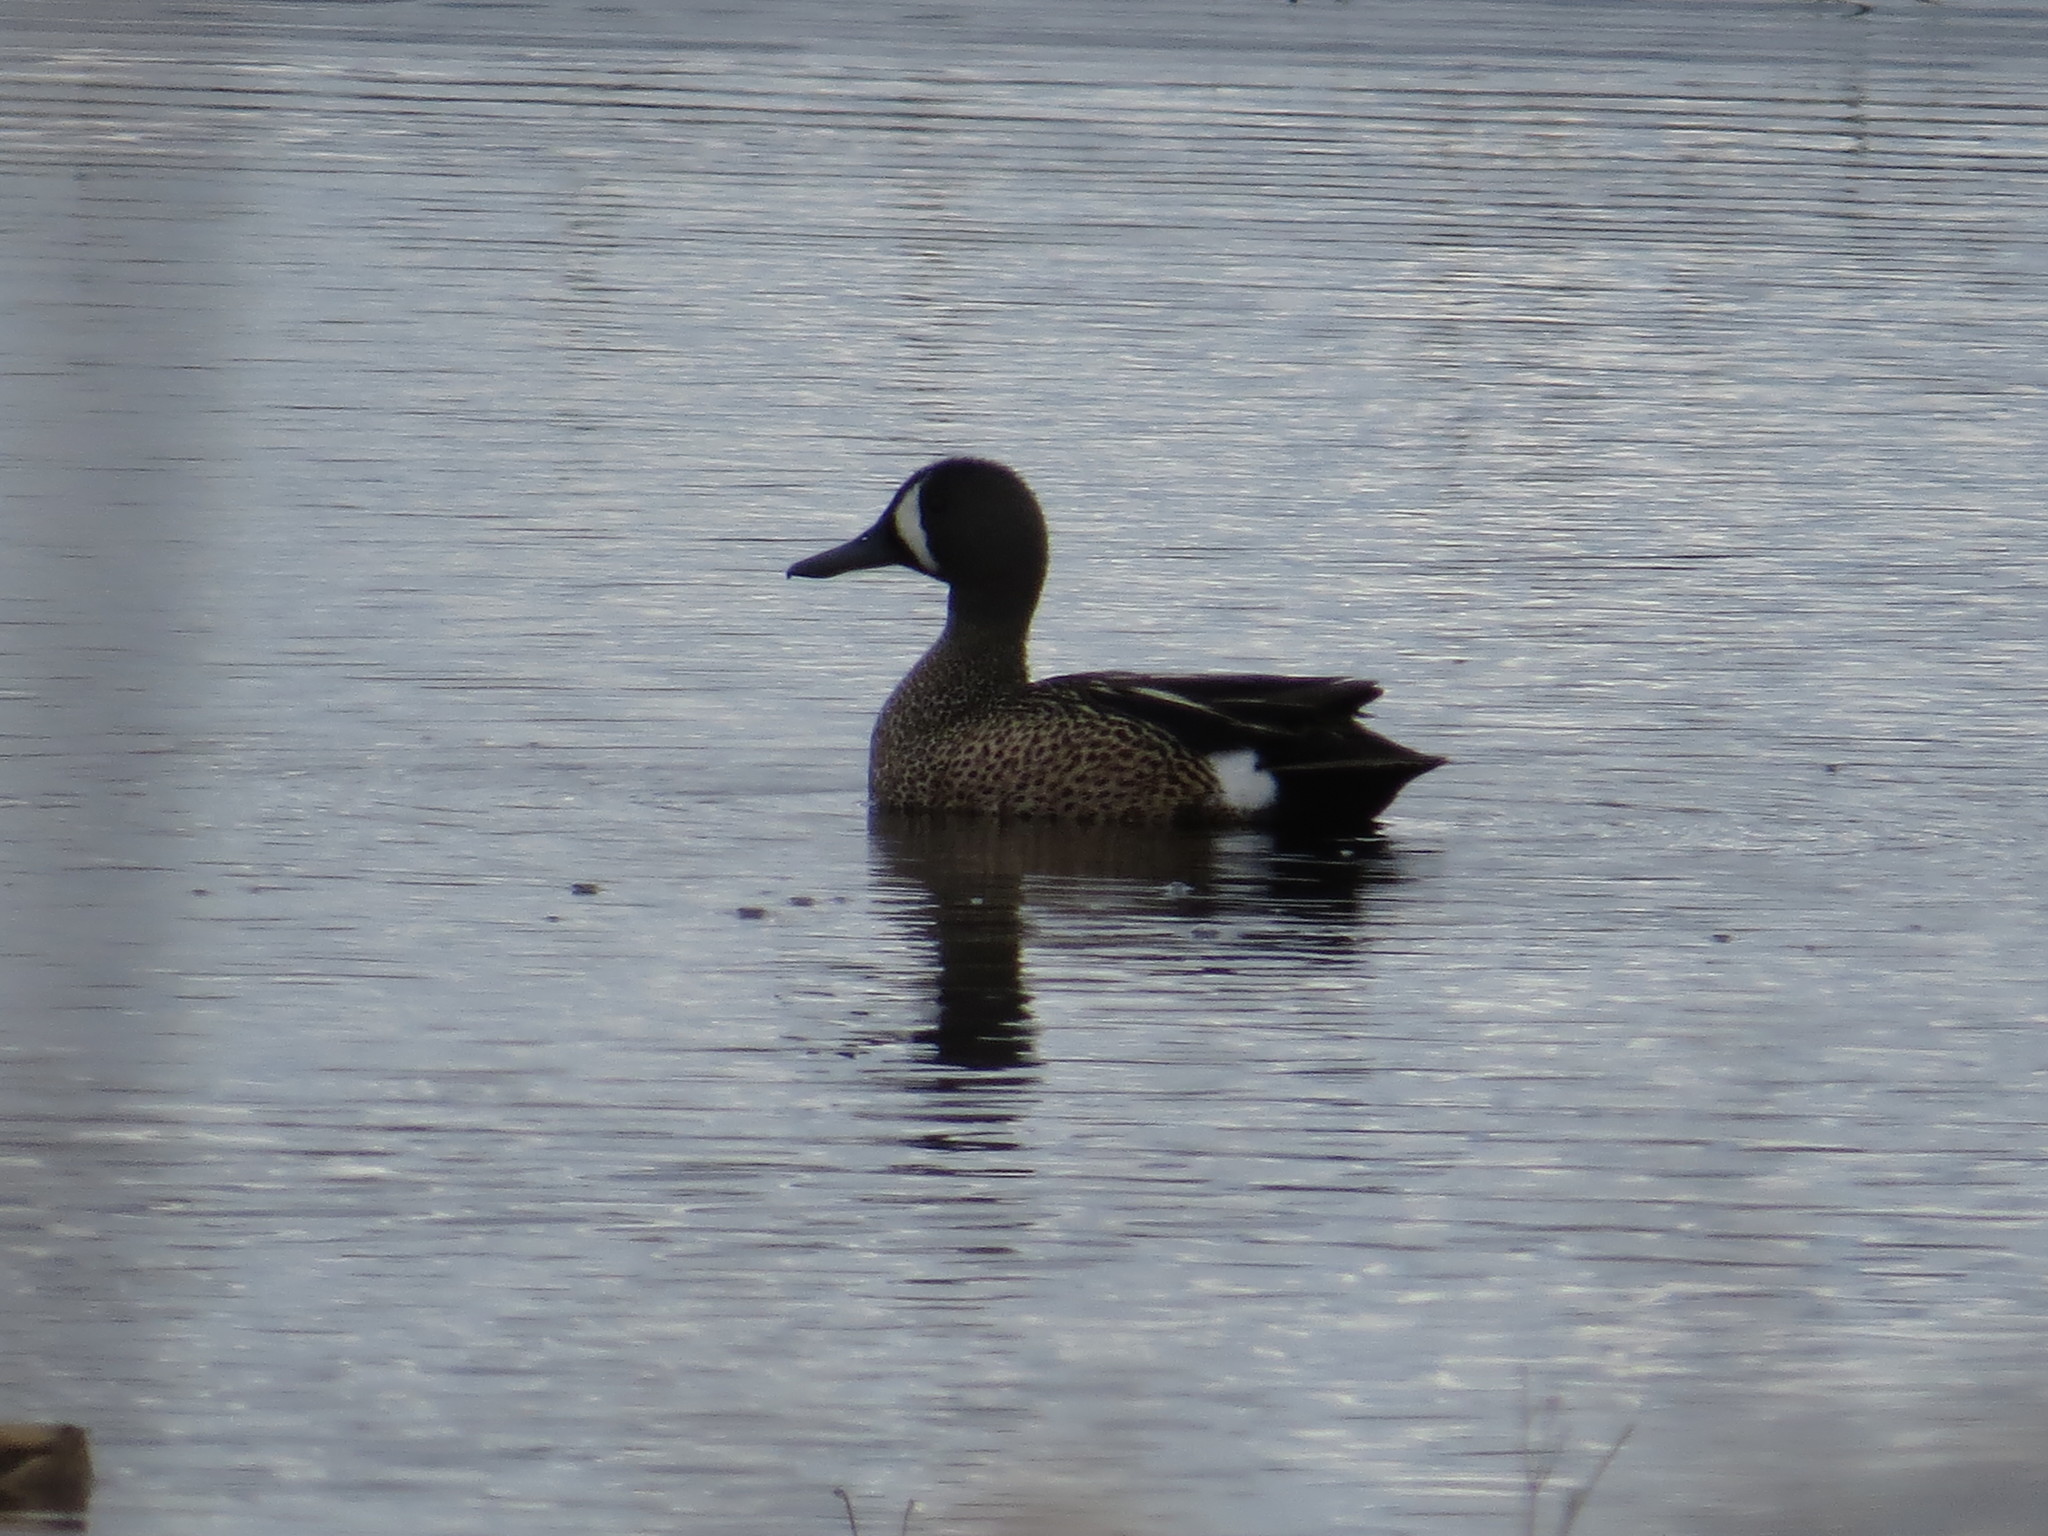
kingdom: Animalia
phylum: Chordata
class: Aves
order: Anseriformes
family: Anatidae
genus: Spatula
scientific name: Spatula discors
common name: Blue-winged teal
